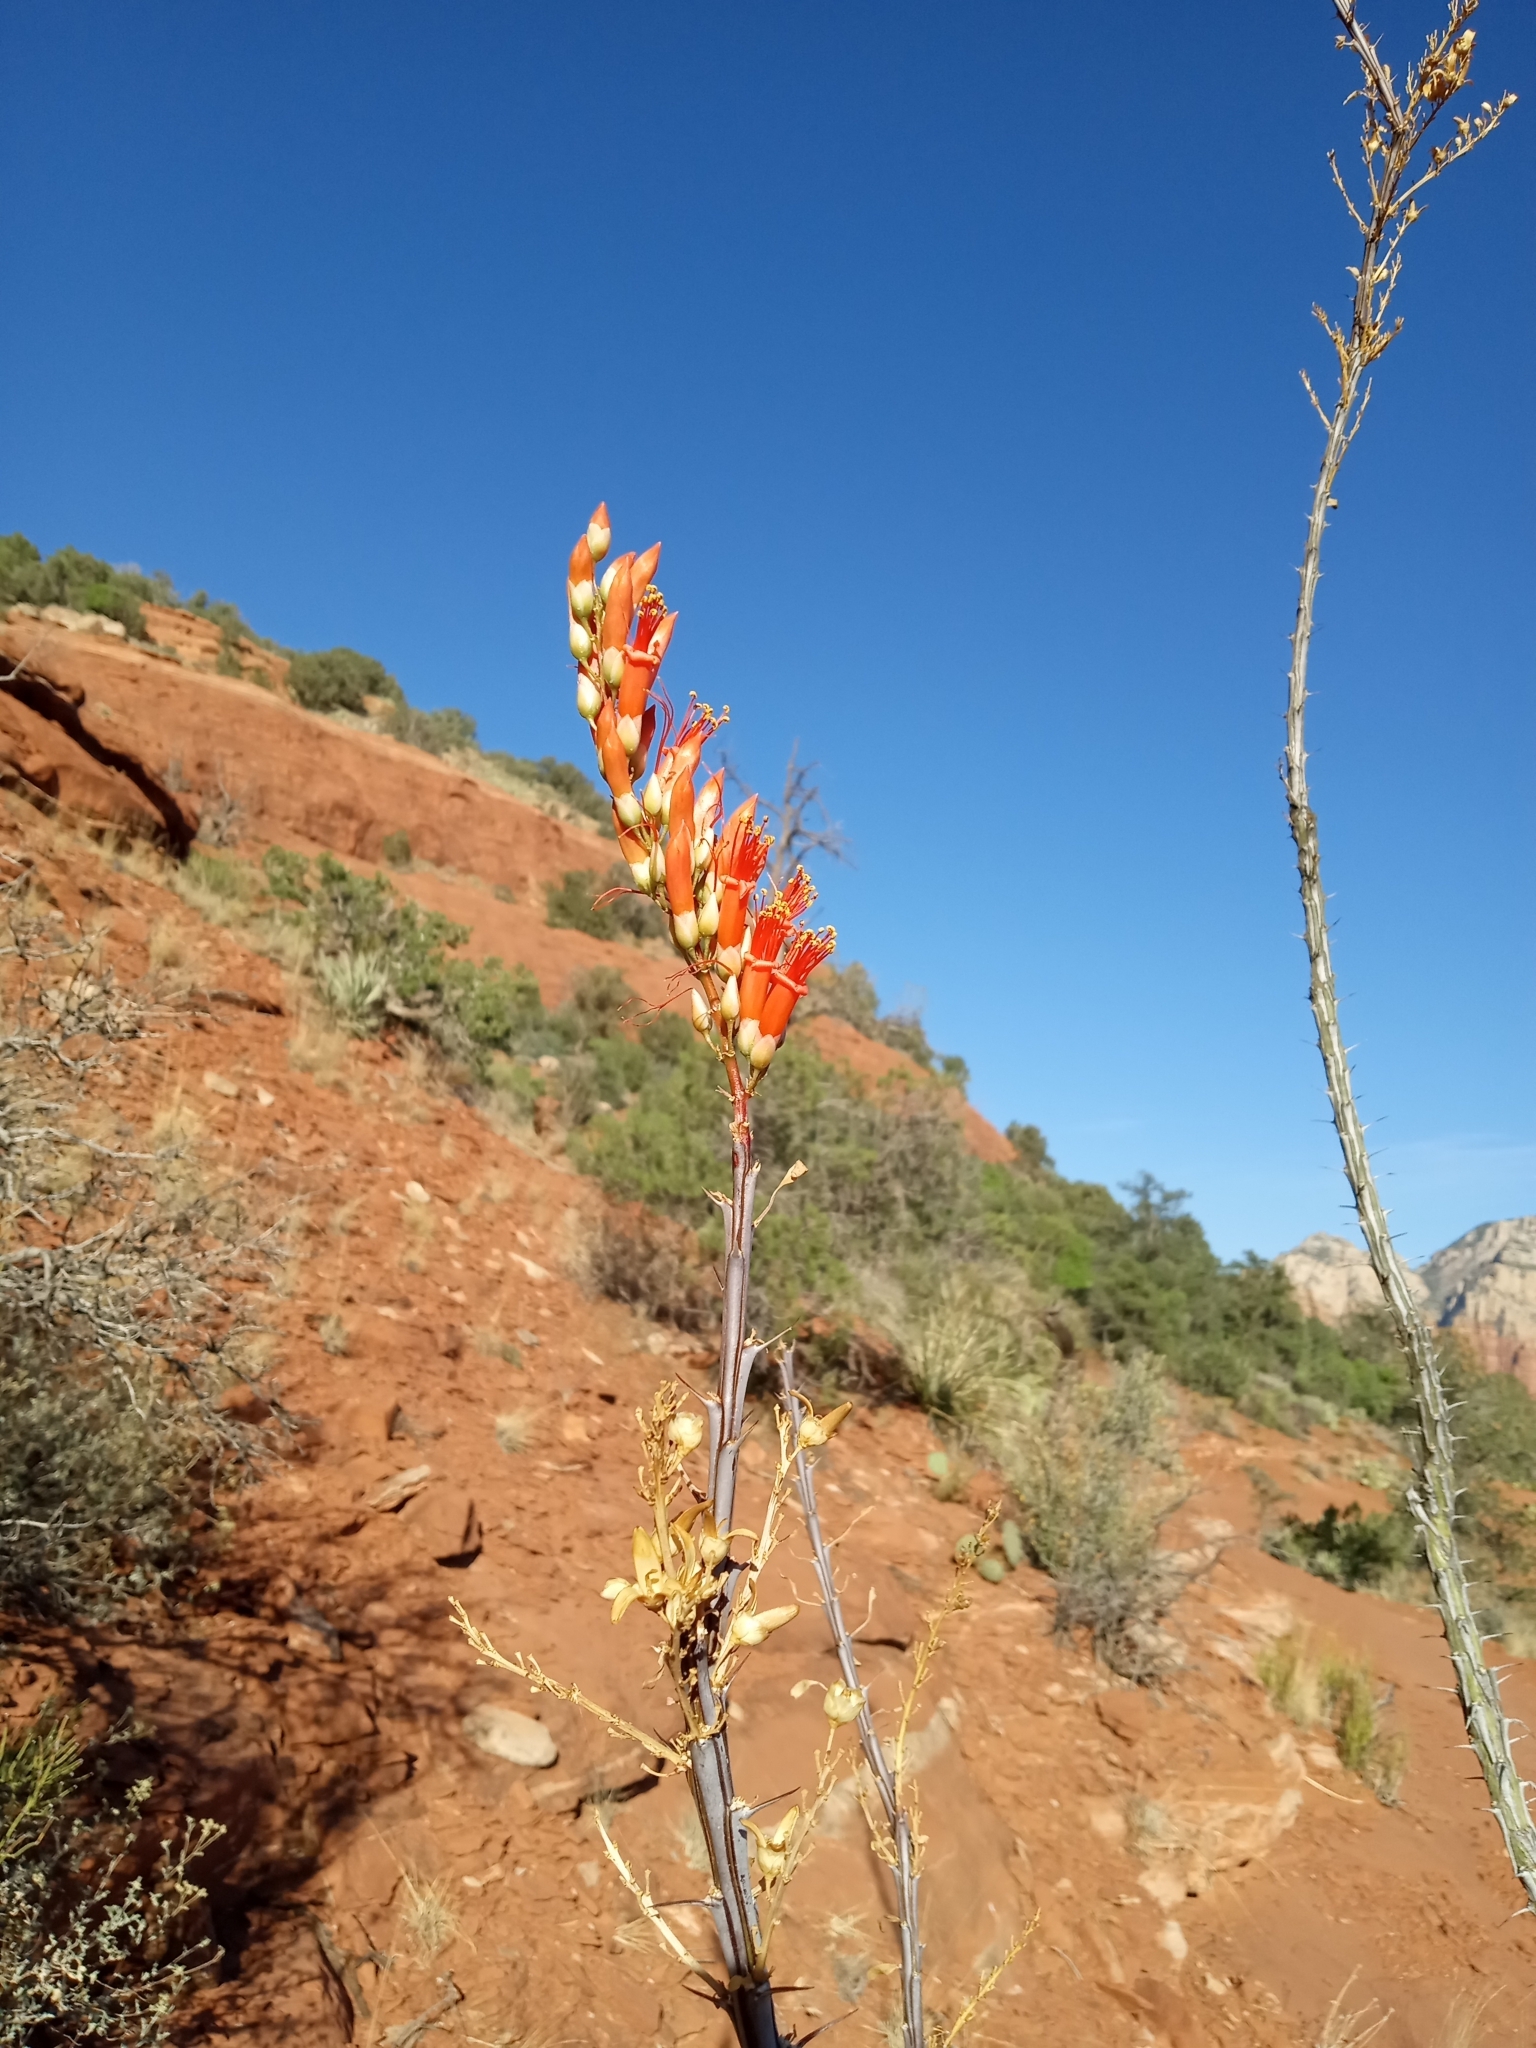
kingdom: Plantae
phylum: Tracheophyta
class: Magnoliopsida
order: Ericales
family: Fouquieriaceae
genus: Fouquieria
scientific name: Fouquieria splendens
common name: Vine-cactus
